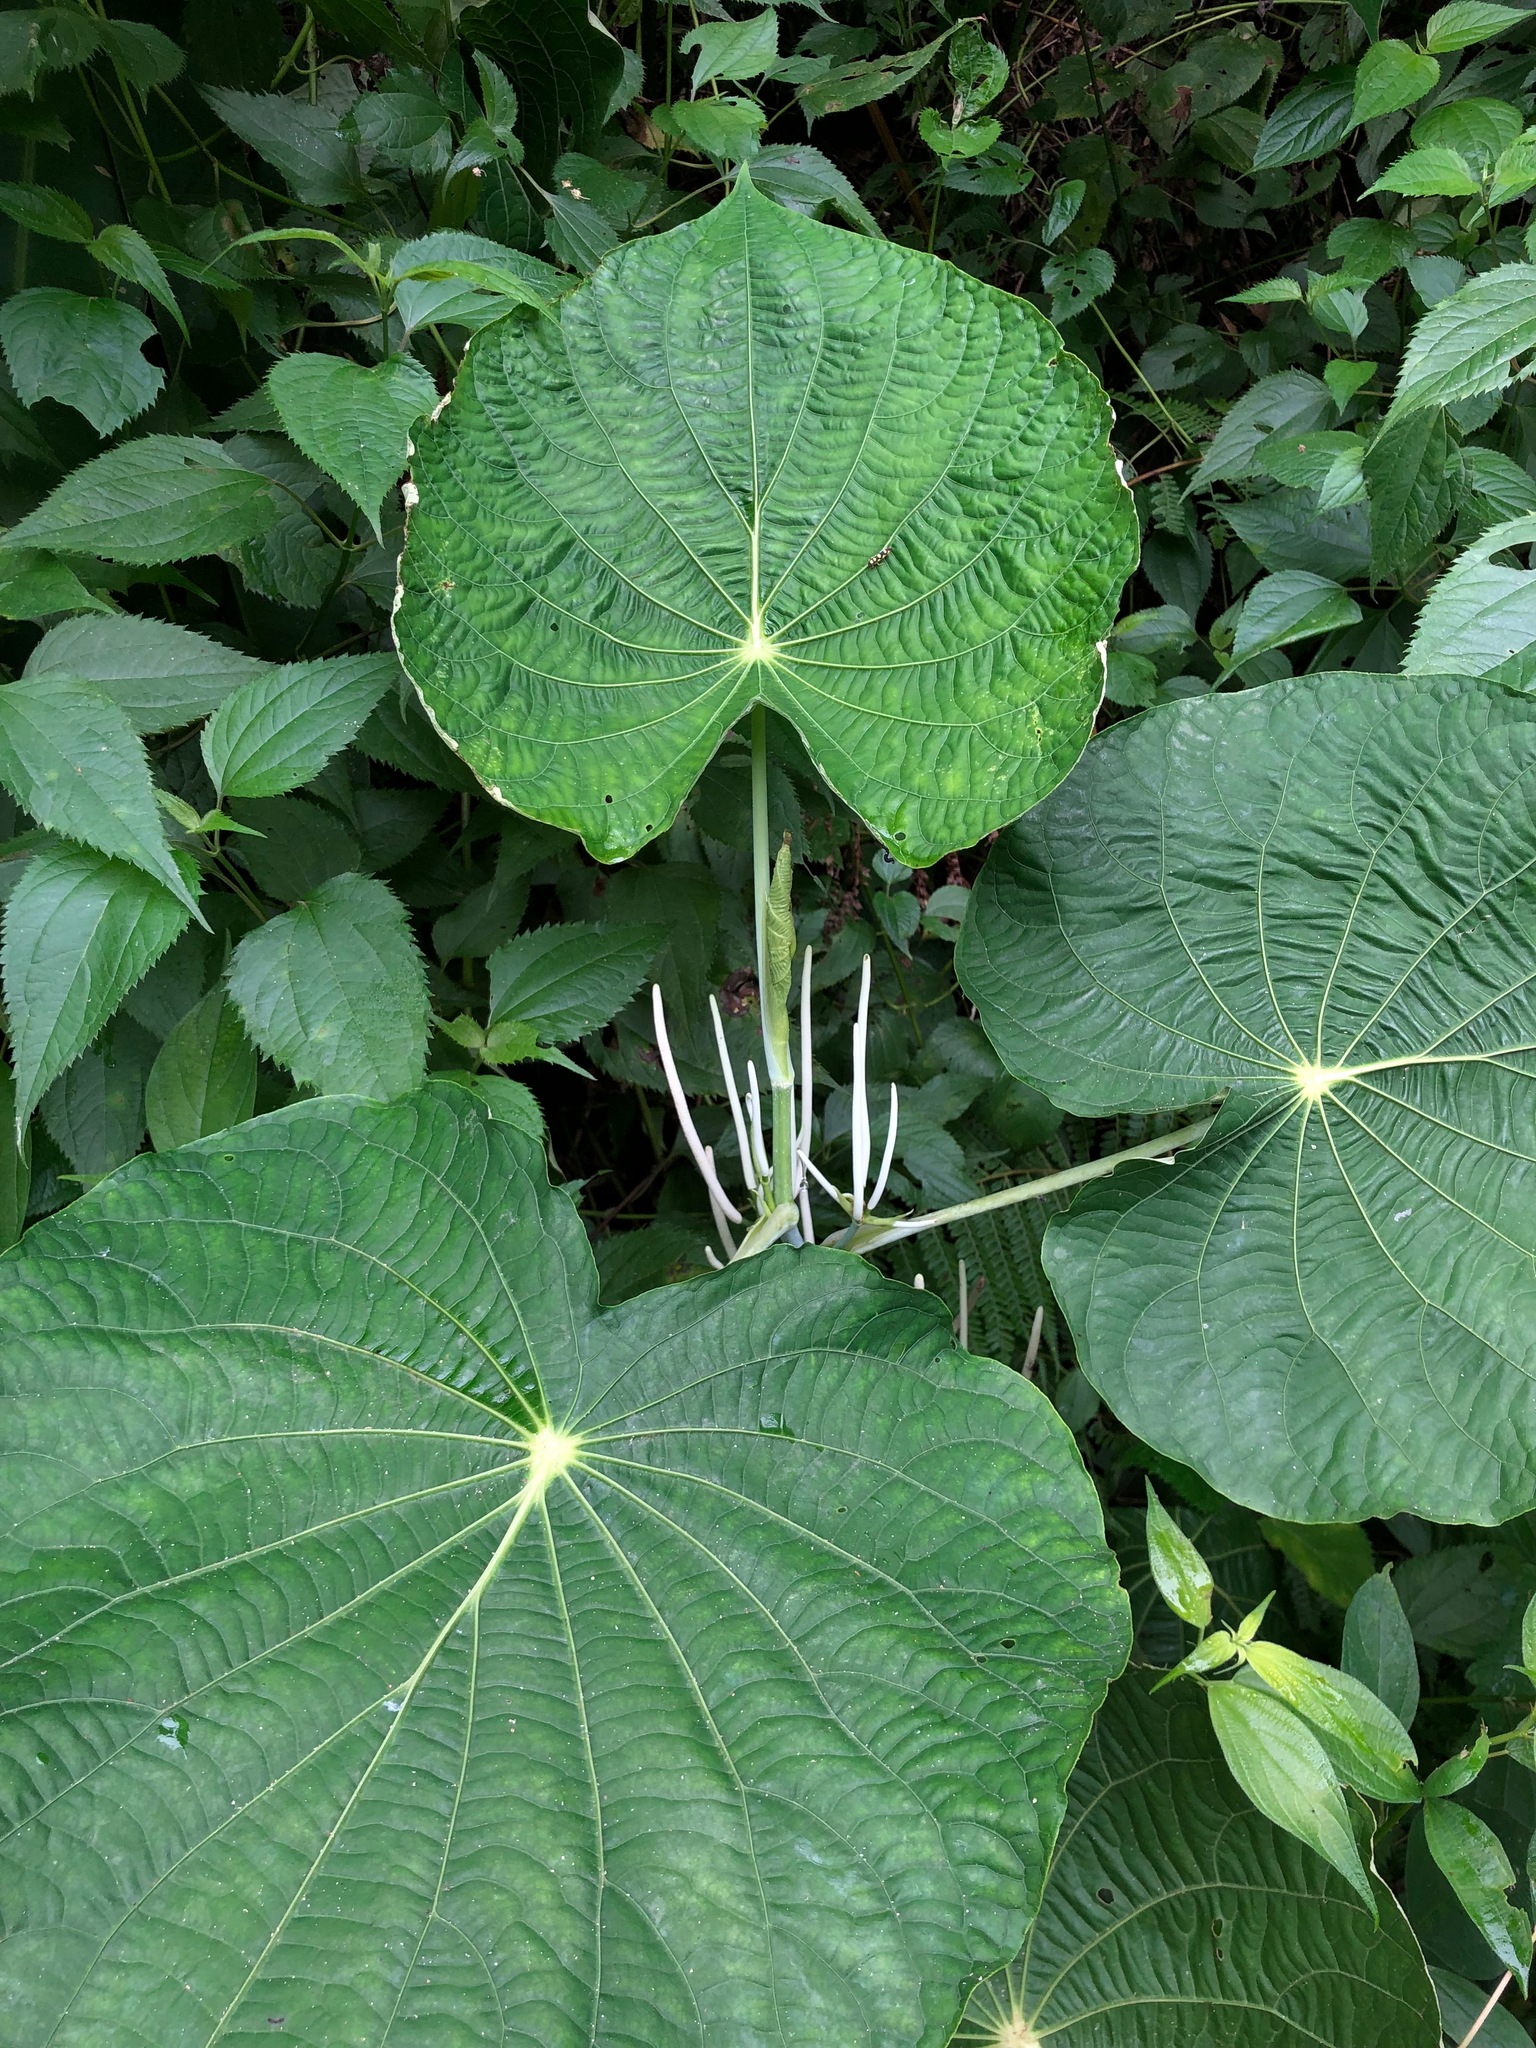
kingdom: Plantae
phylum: Tracheophyta
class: Magnoliopsida
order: Piperales
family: Piperaceae
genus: Piper
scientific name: Piper peltatum
